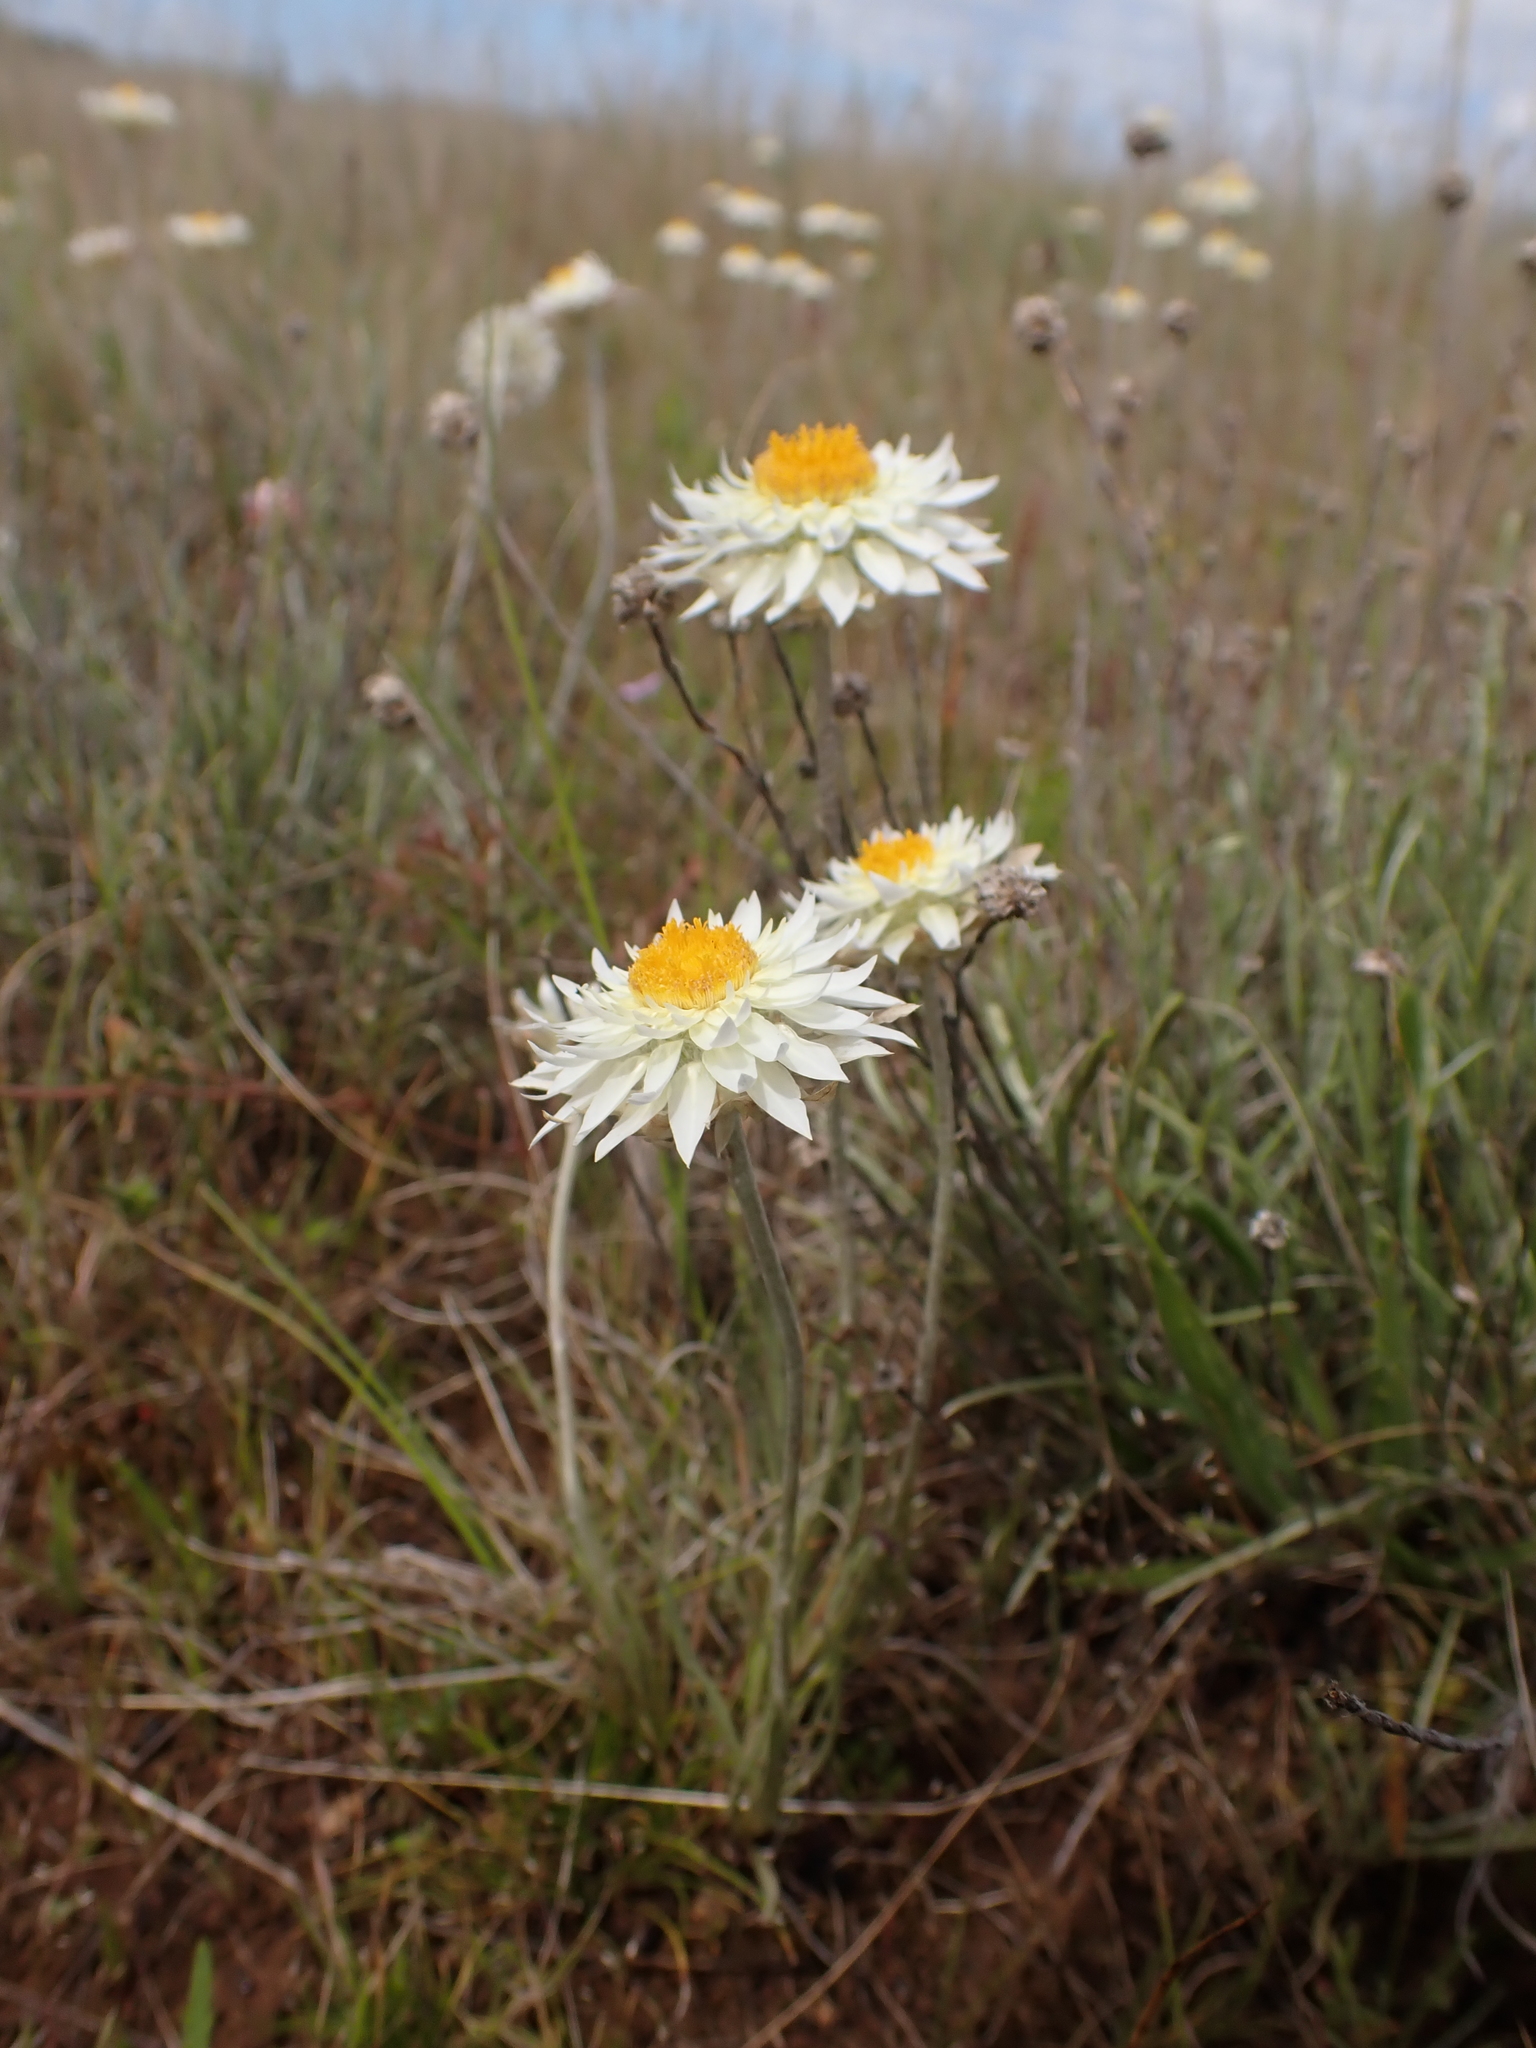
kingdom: Plantae
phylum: Tracheophyta
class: Magnoliopsida
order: Asterales
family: Asteraceae
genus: Leucochrysum
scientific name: Leucochrysum albicans
